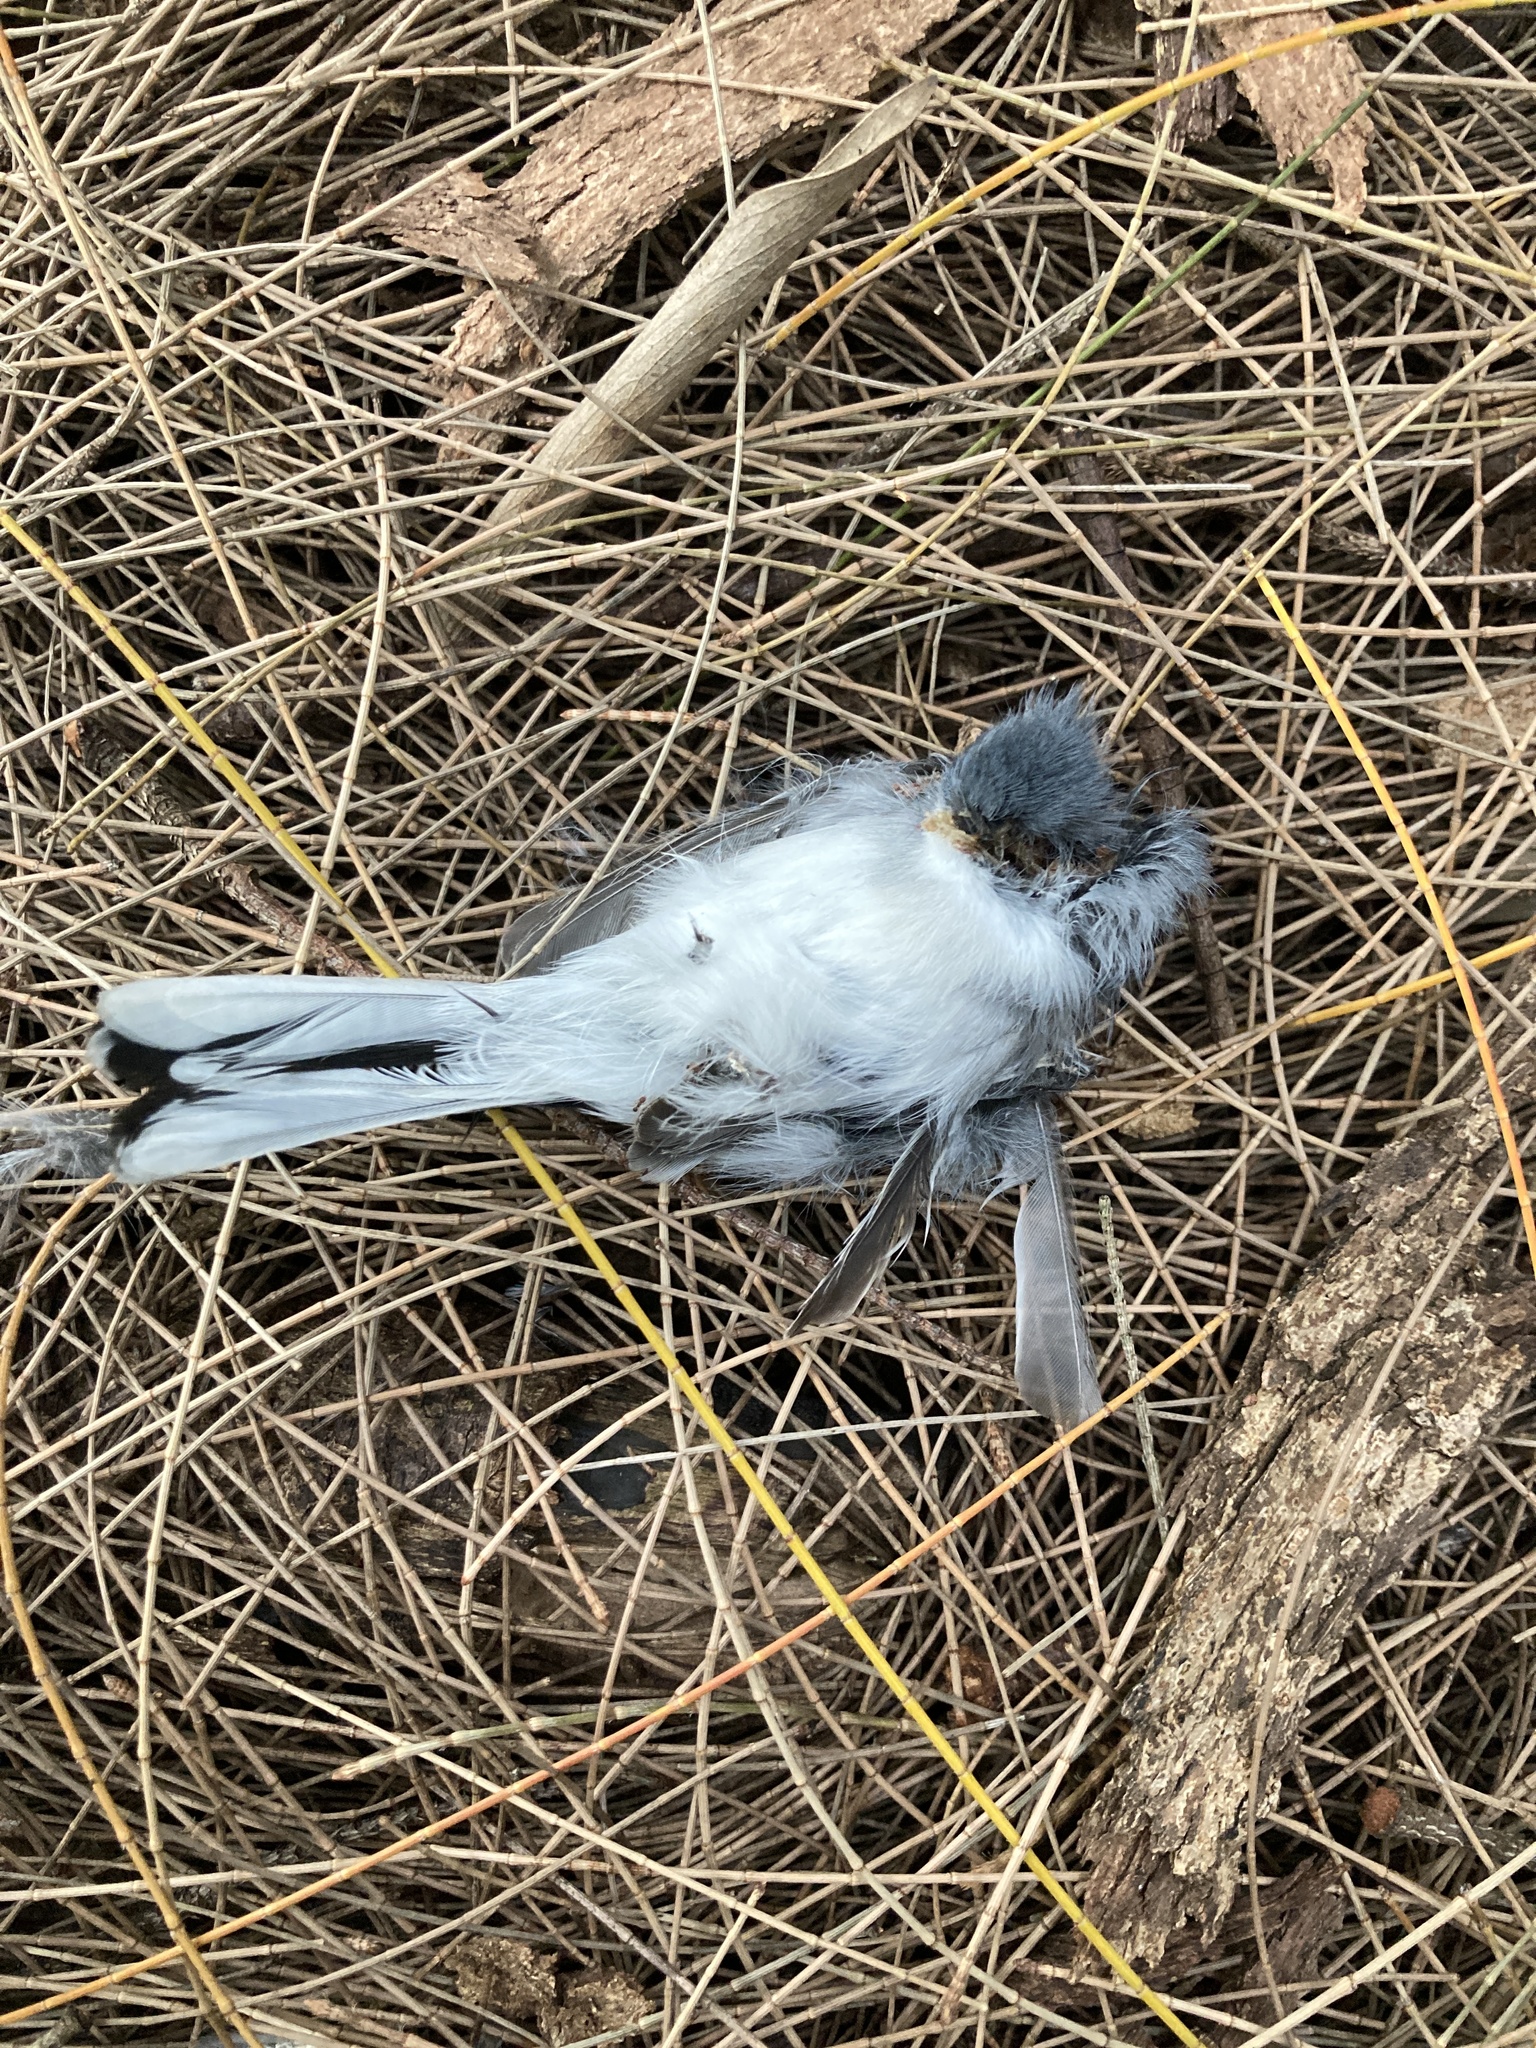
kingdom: Animalia
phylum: Chordata
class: Aves
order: Passeriformes
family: Polioptilidae
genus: Polioptila
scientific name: Polioptila caerulea
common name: Blue-gray gnatcatcher
